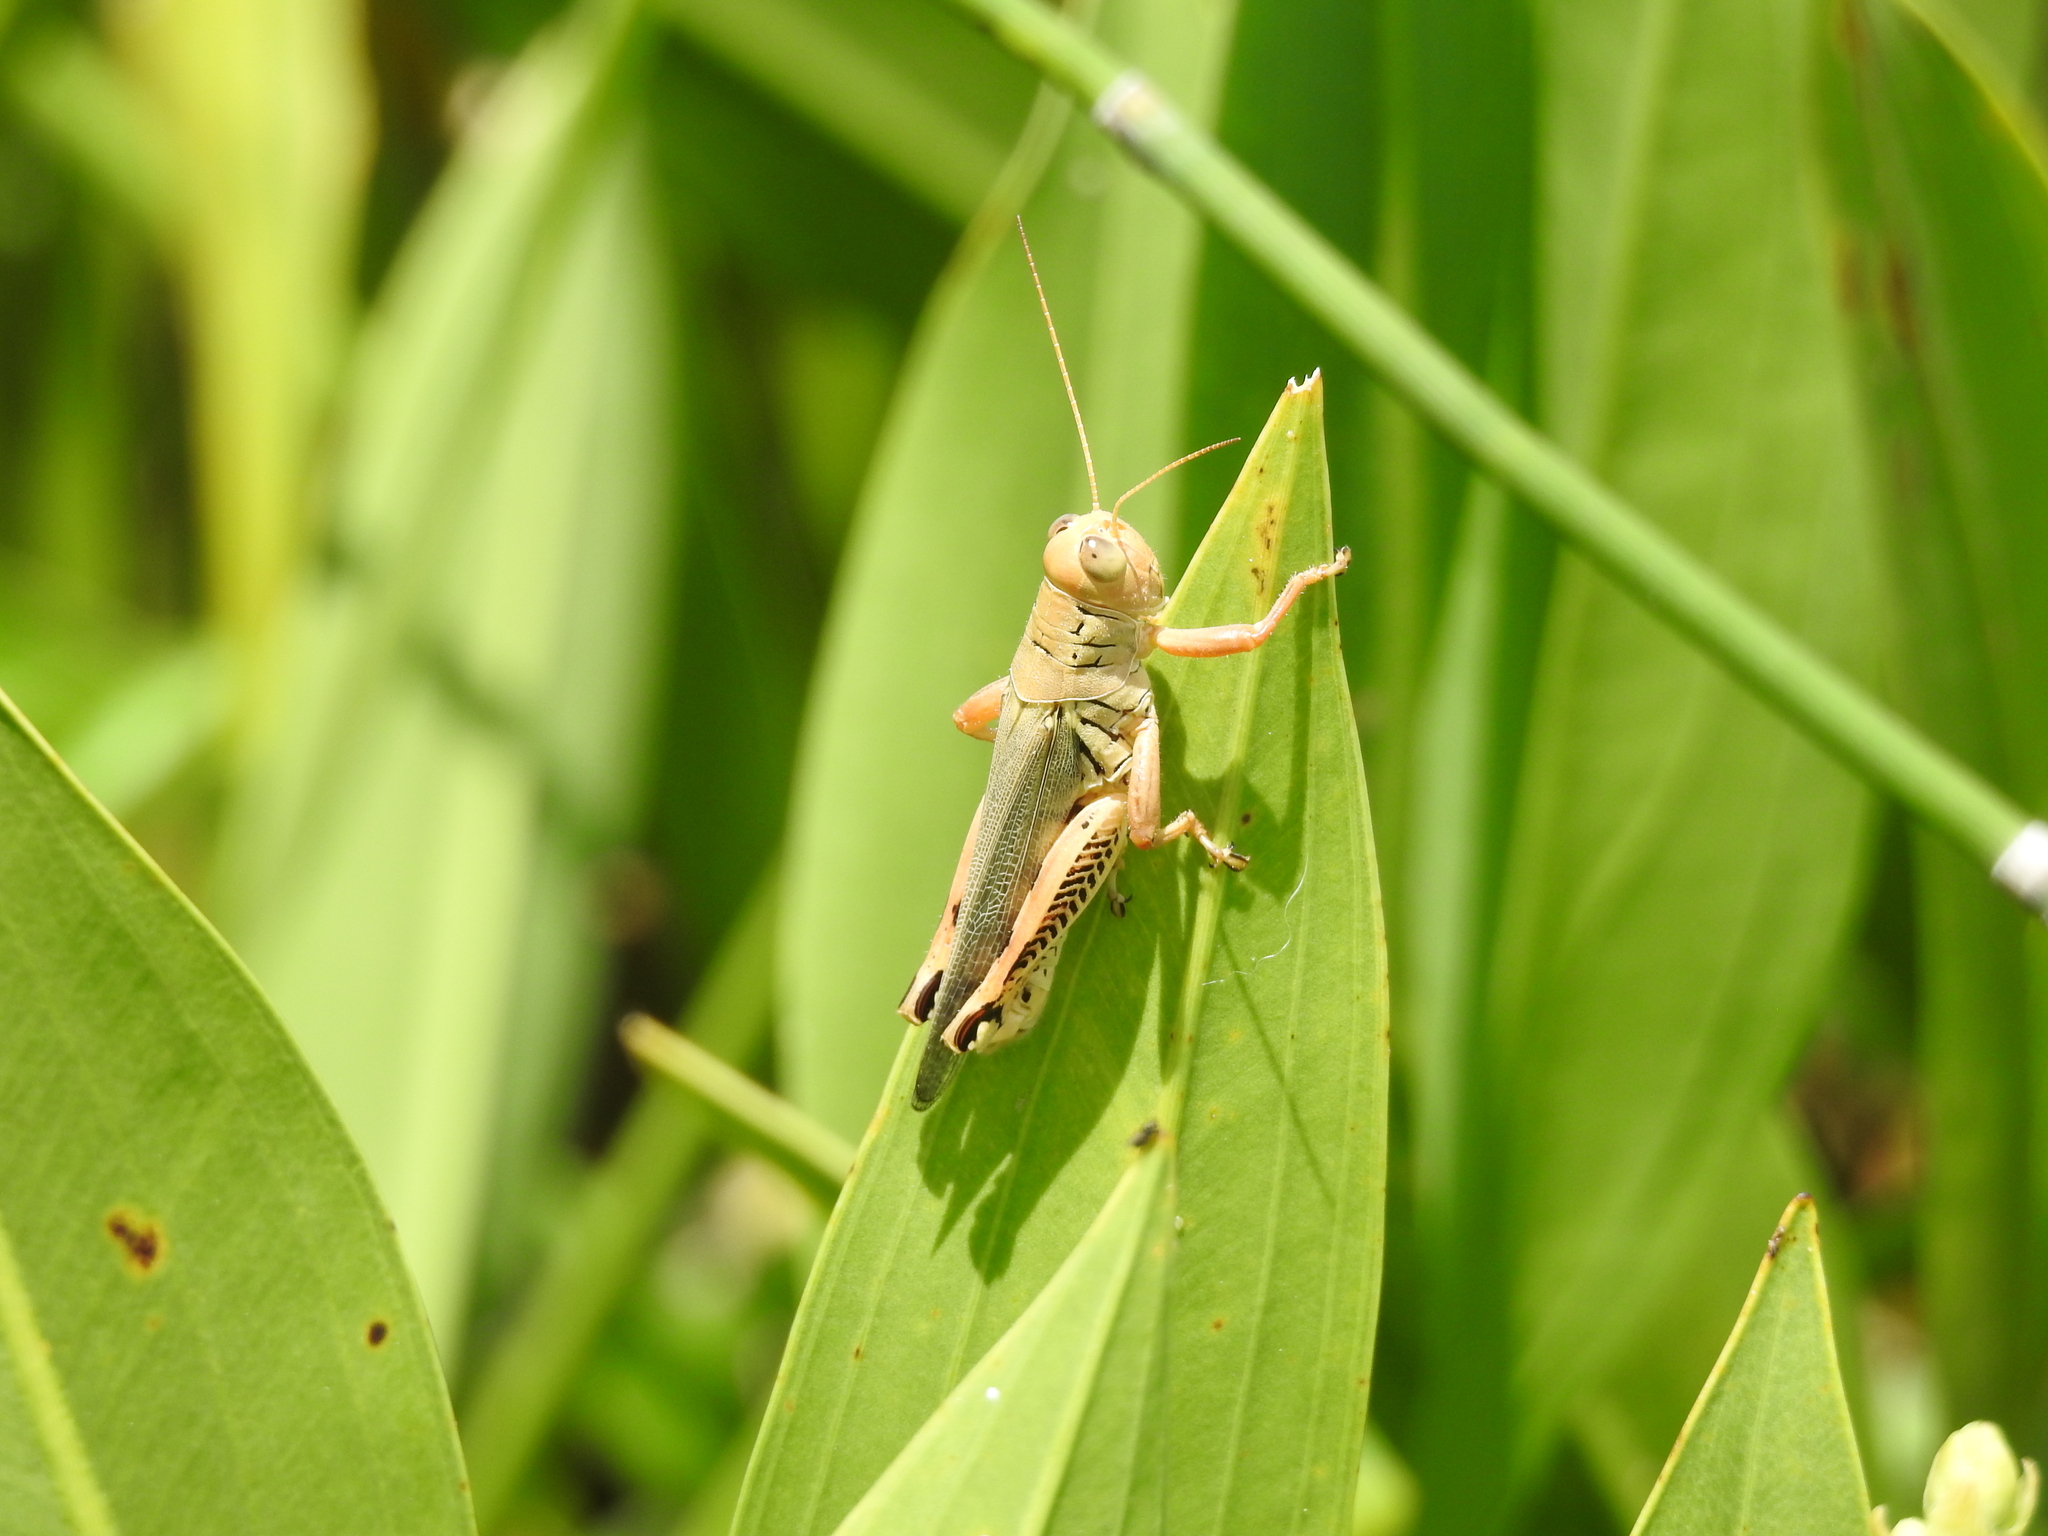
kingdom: Animalia
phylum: Arthropoda
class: Insecta
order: Orthoptera
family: Acrididae
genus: Melanoplus
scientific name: Melanoplus differentialis
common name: Differential grasshopper
